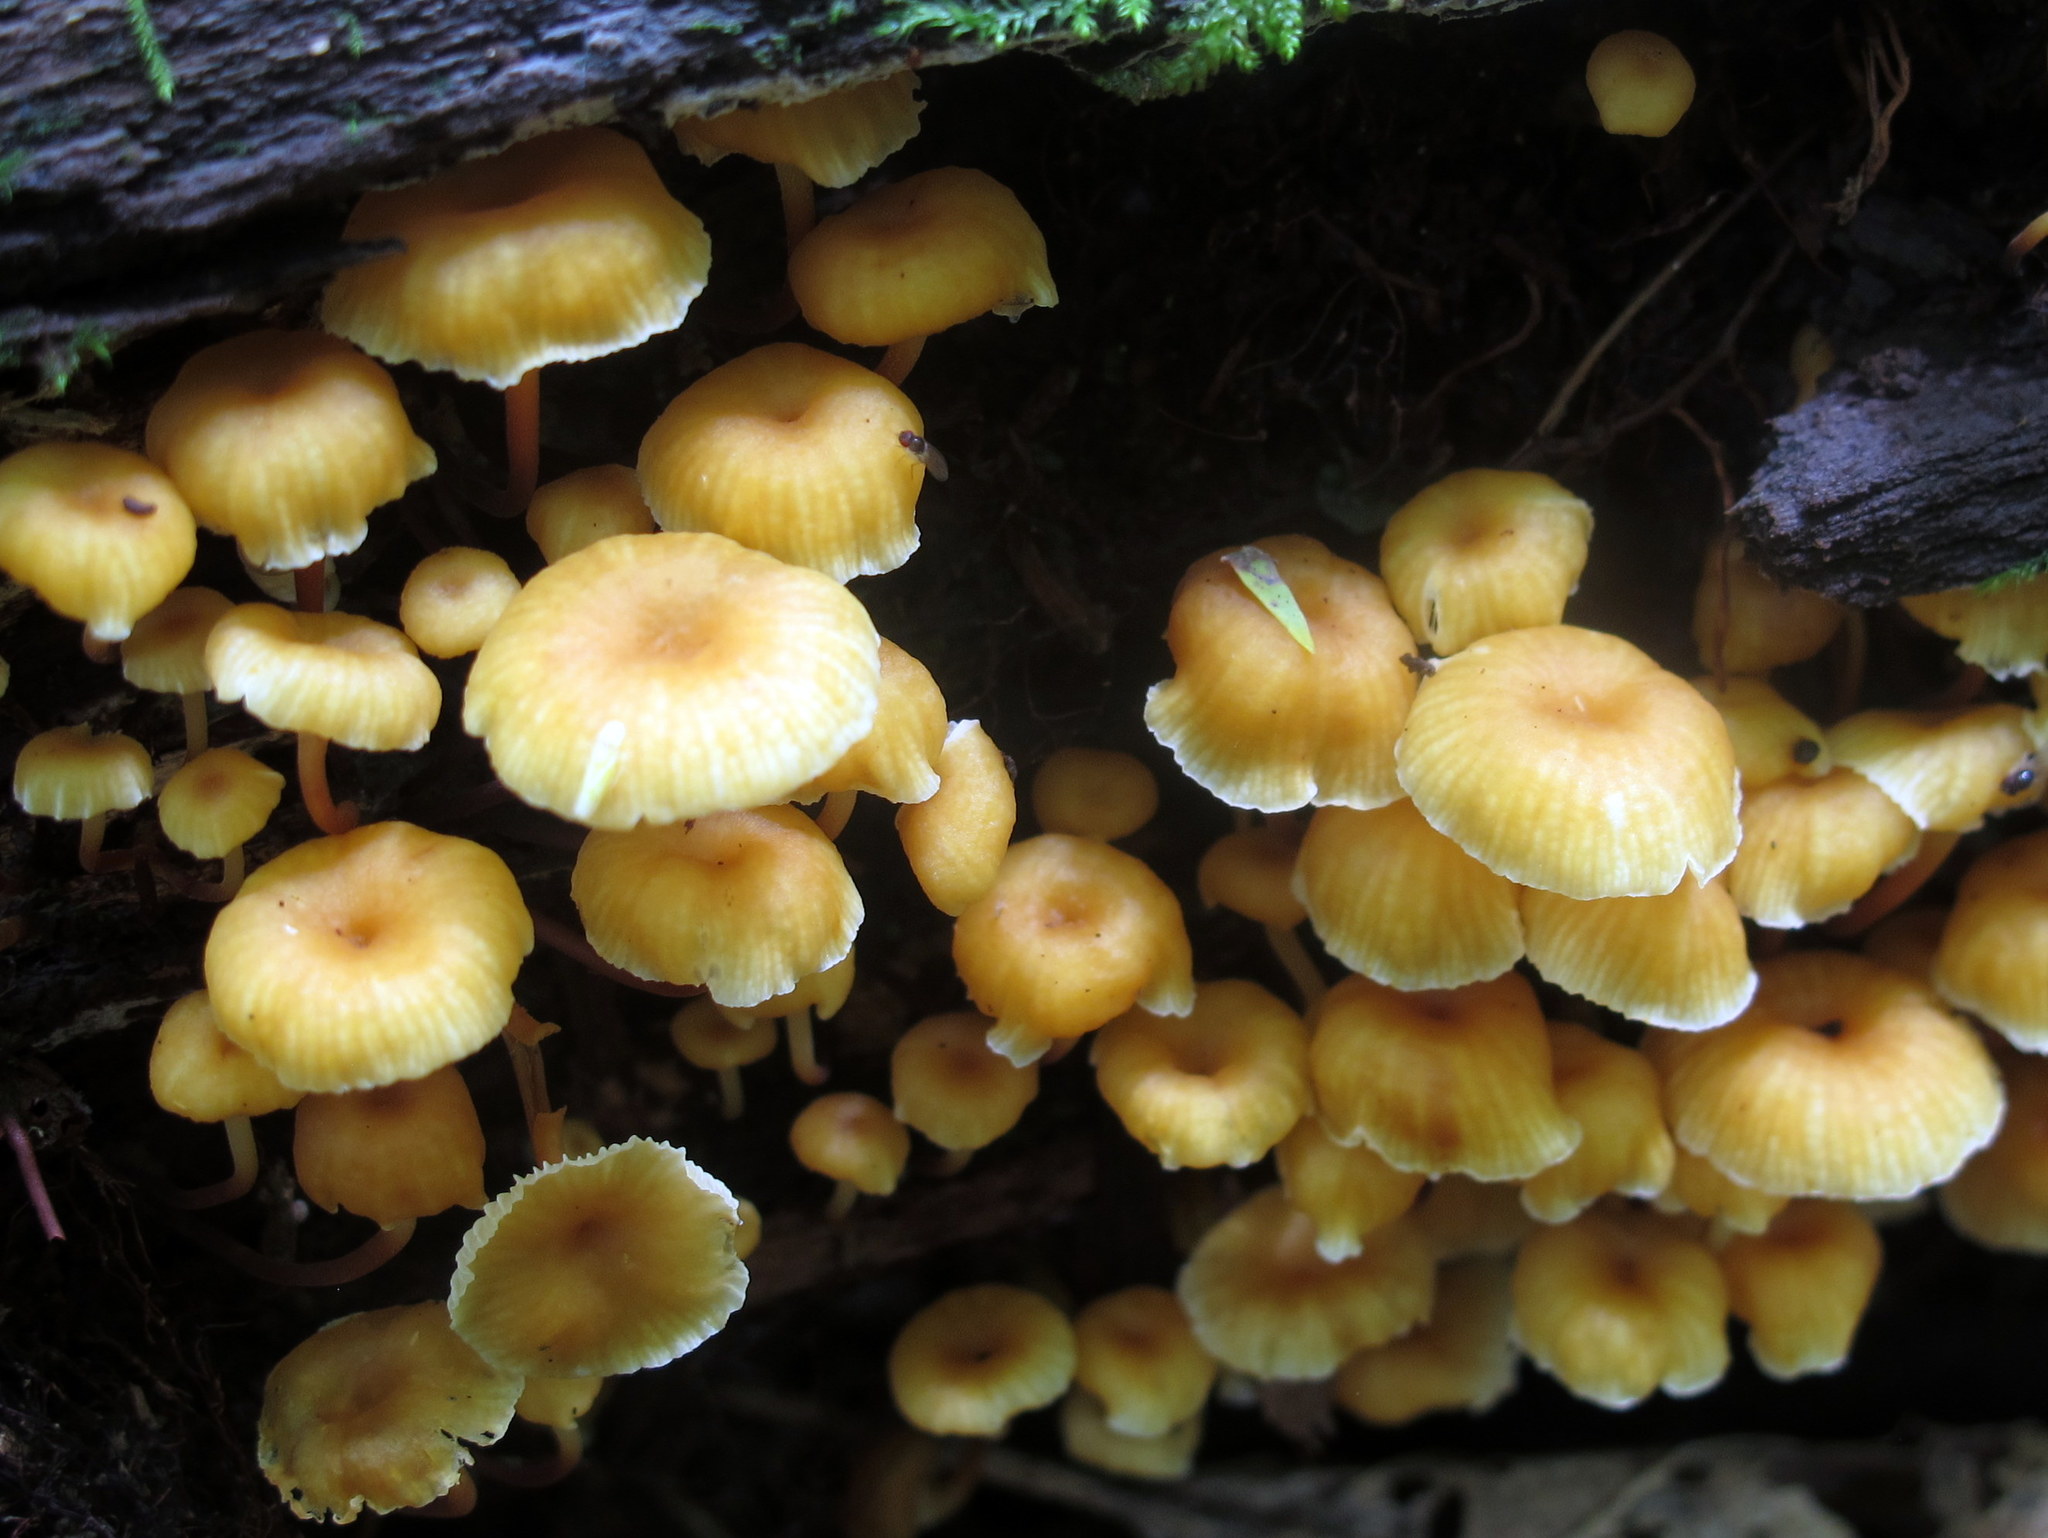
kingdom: Fungi
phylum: Basidiomycota
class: Agaricomycetes
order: Agaricales
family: Mycenaceae
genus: Xeromphalina
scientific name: Xeromphalina campanella
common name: Pinewood gingertail
